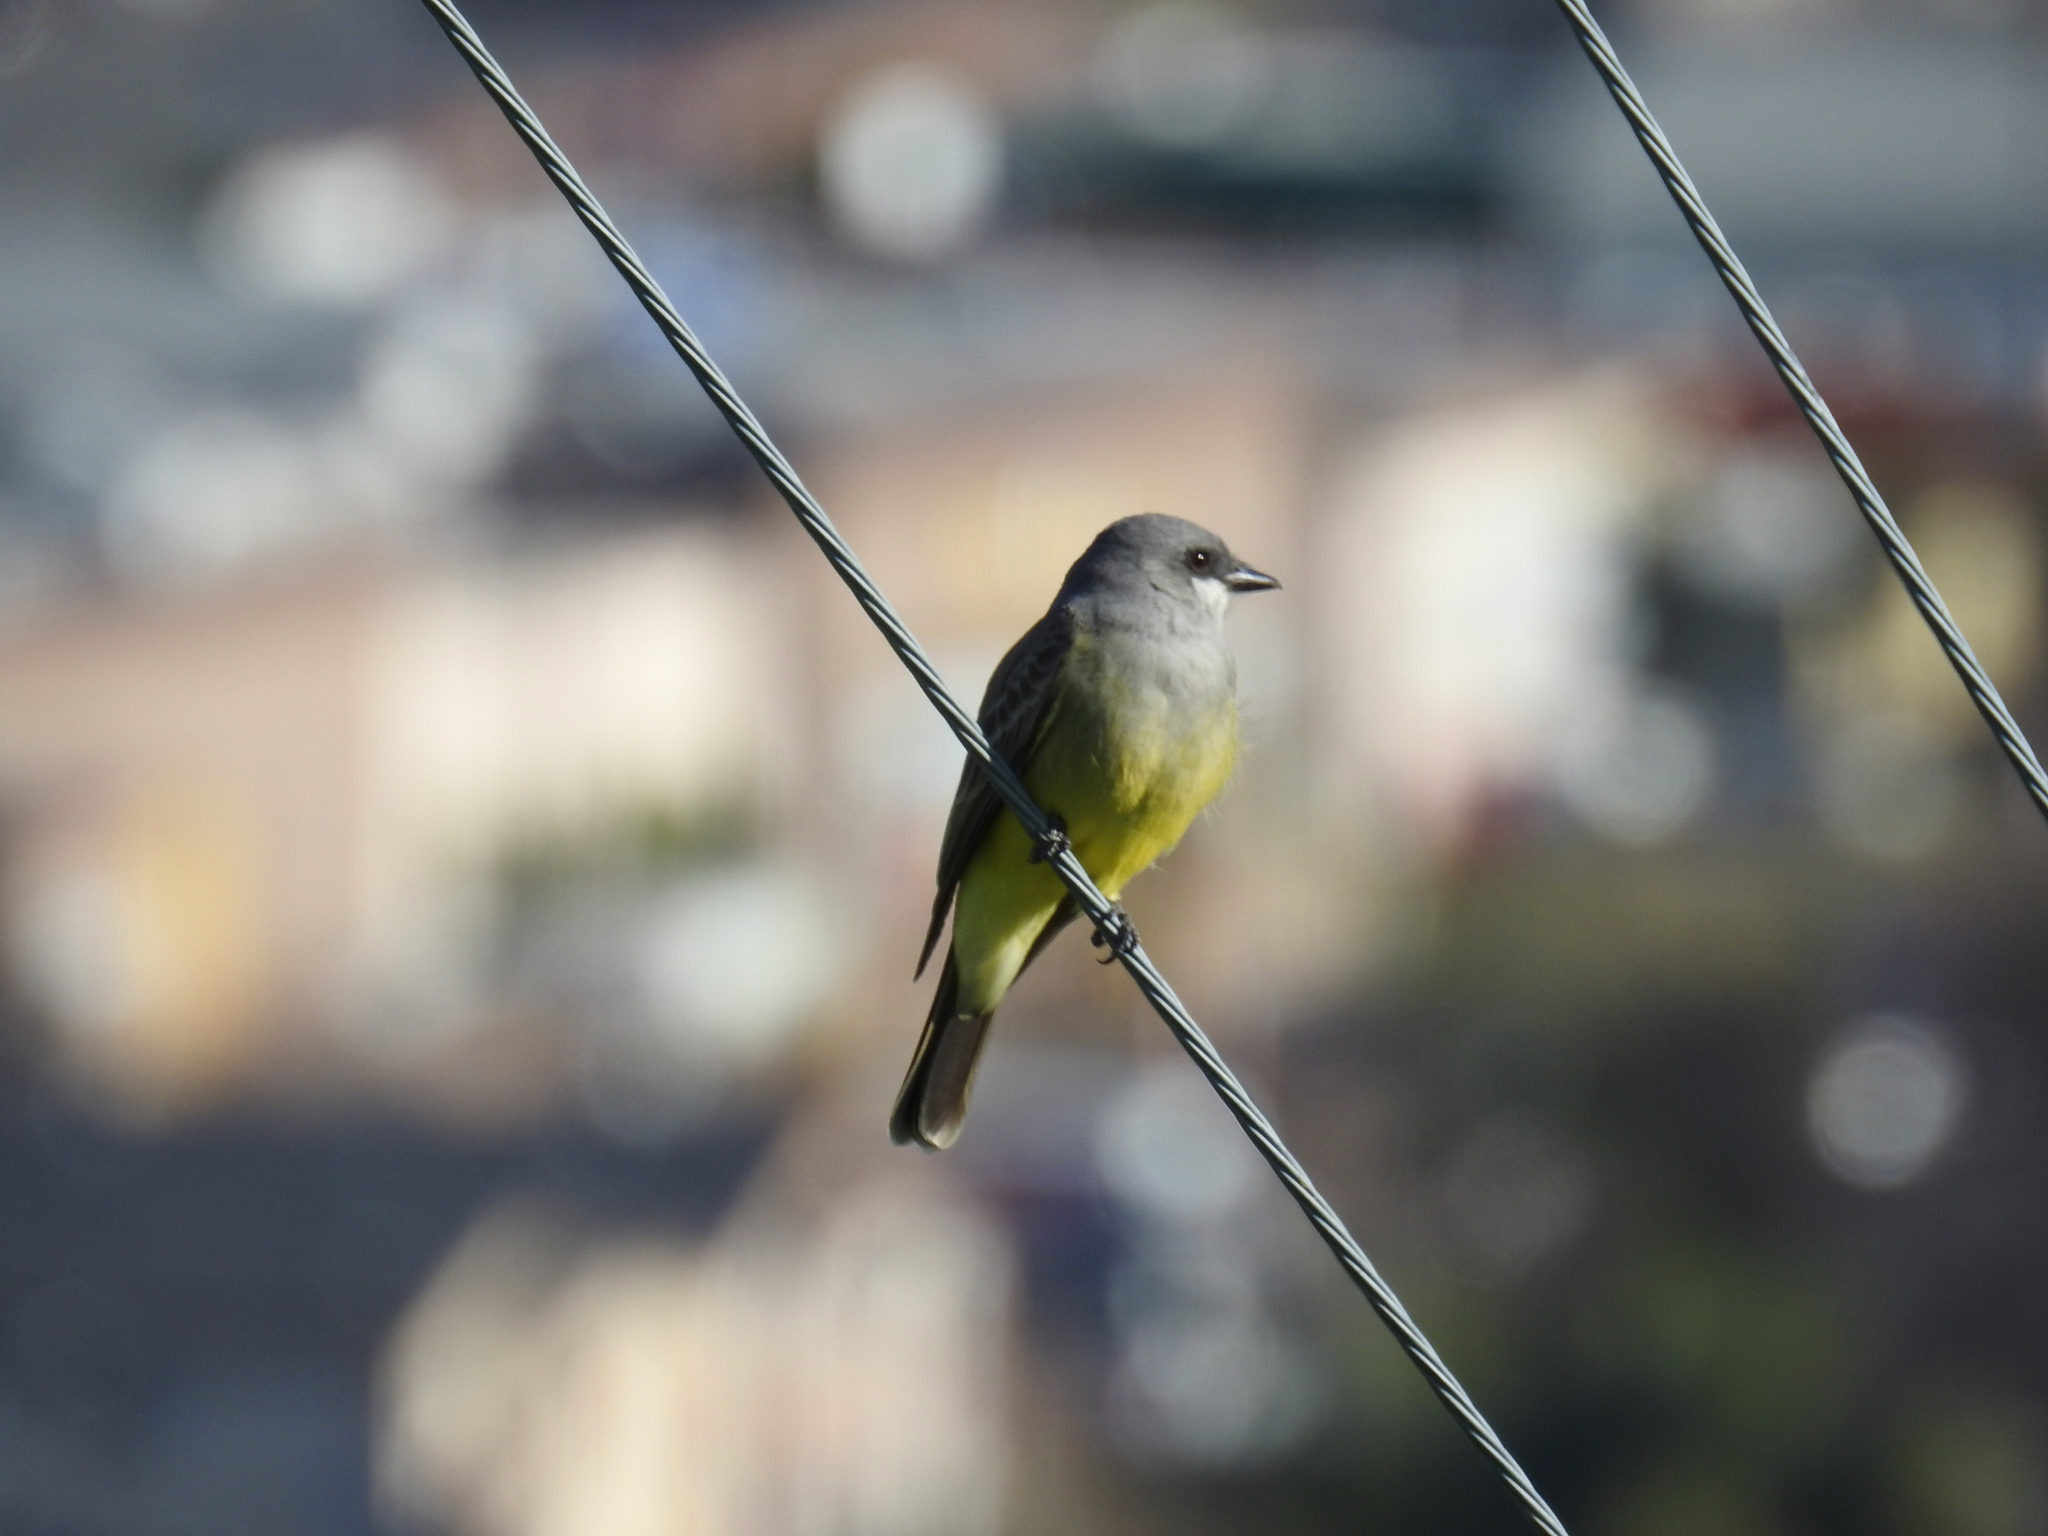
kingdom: Animalia
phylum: Chordata
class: Aves
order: Passeriformes
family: Tyrannidae
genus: Tyrannus
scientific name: Tyrannus vociferans
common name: Cassin's kingbird
